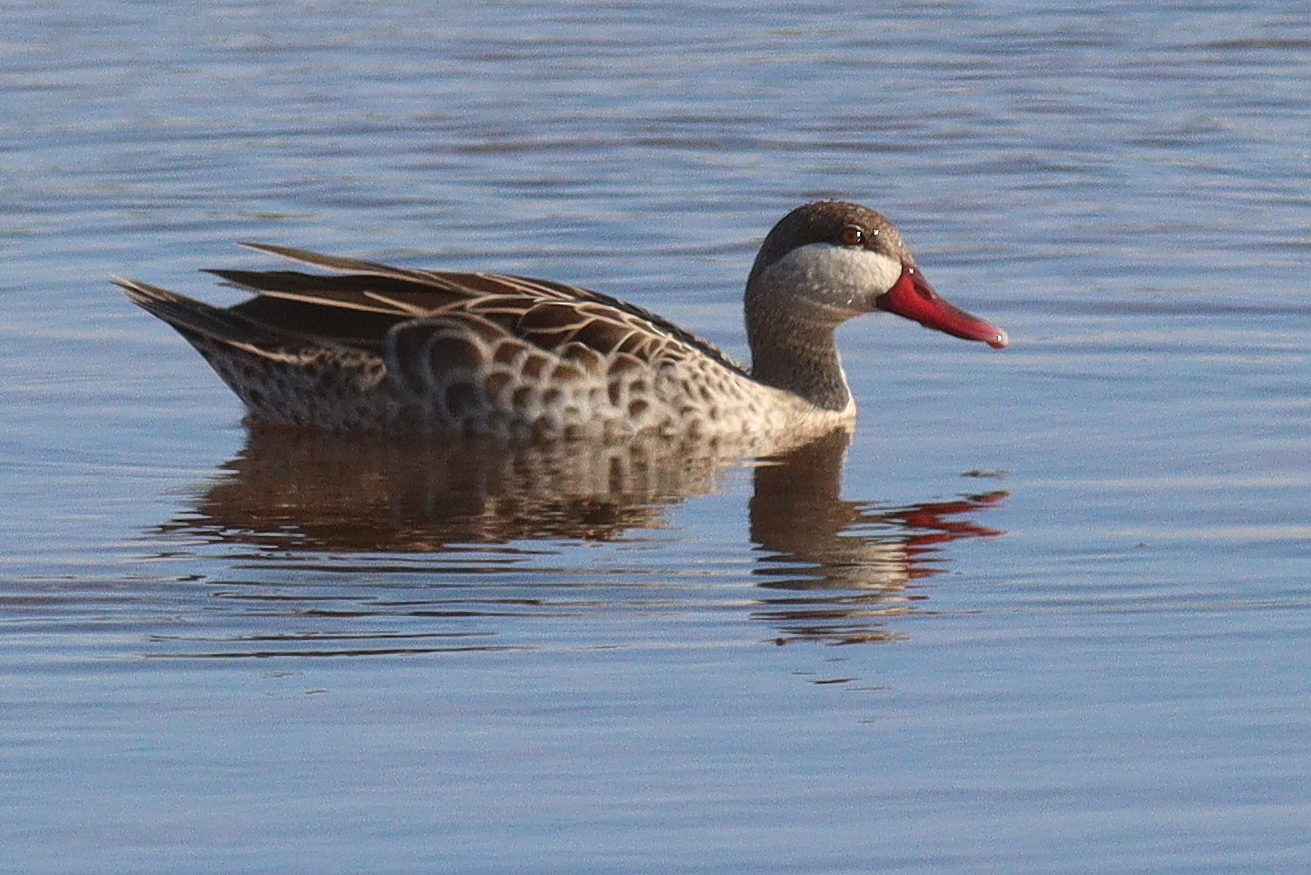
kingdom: Animalia
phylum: Chordata
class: Aves
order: Anseriformes
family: Anatidae
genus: Anas
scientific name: Anas erythrorhyncha
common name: Red-billed teal
